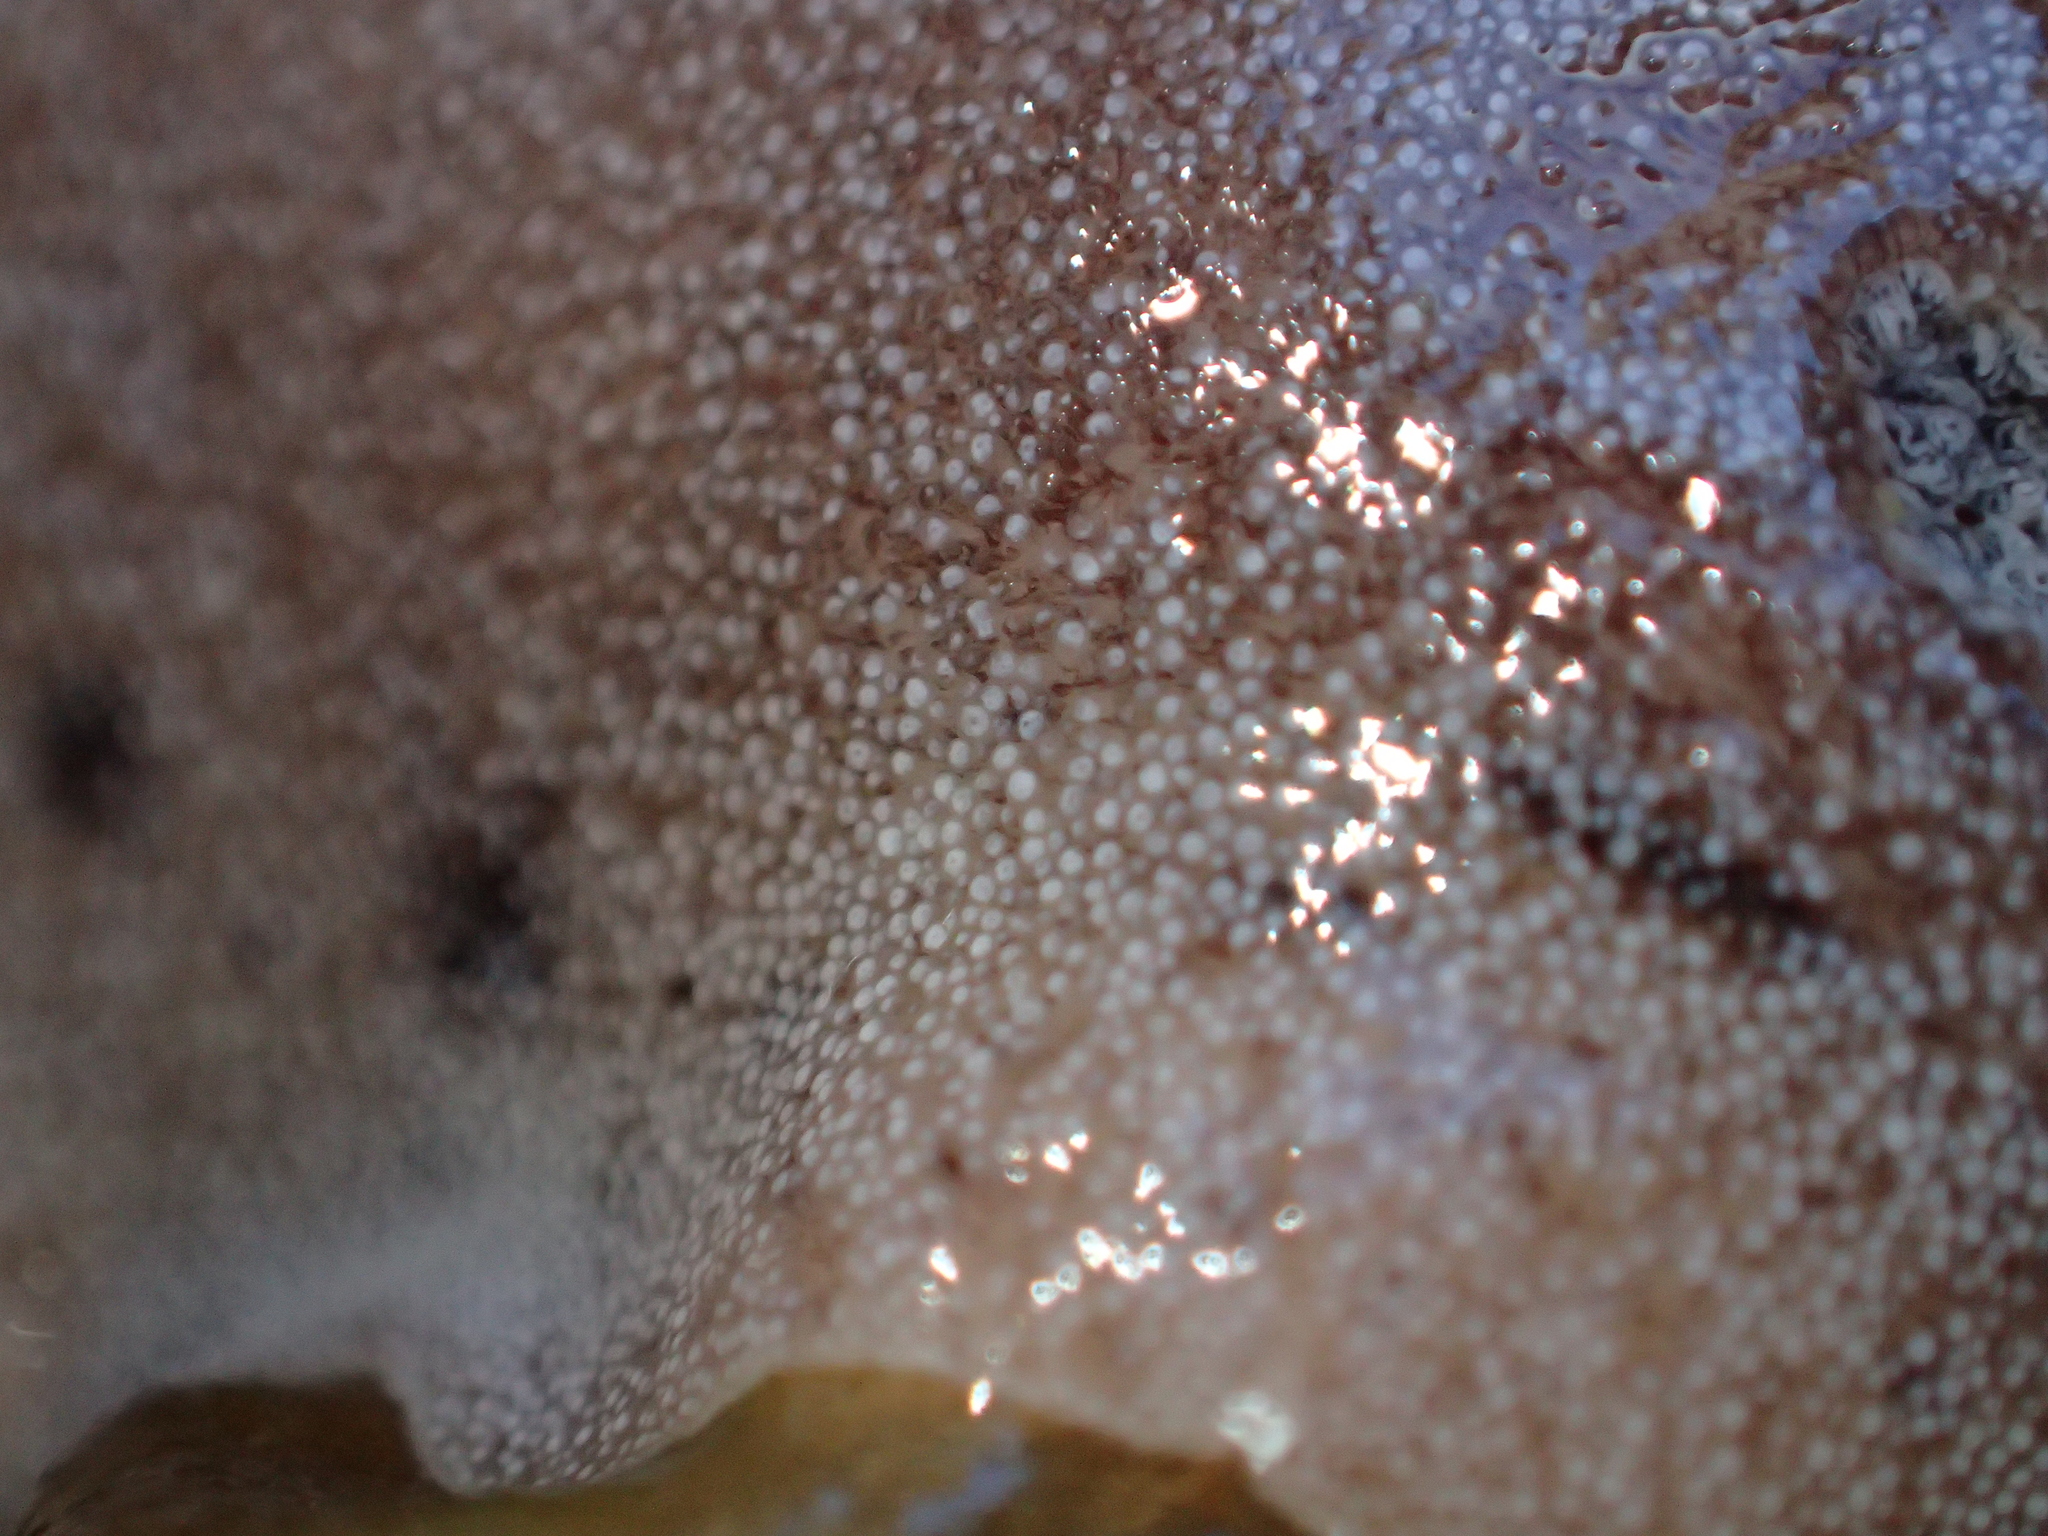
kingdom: Animalia
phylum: Mollusca
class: Gastropoda
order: Nudibranchia
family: Discodorididae
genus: Alloiodoris
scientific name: Alloiodoris lanuginata
